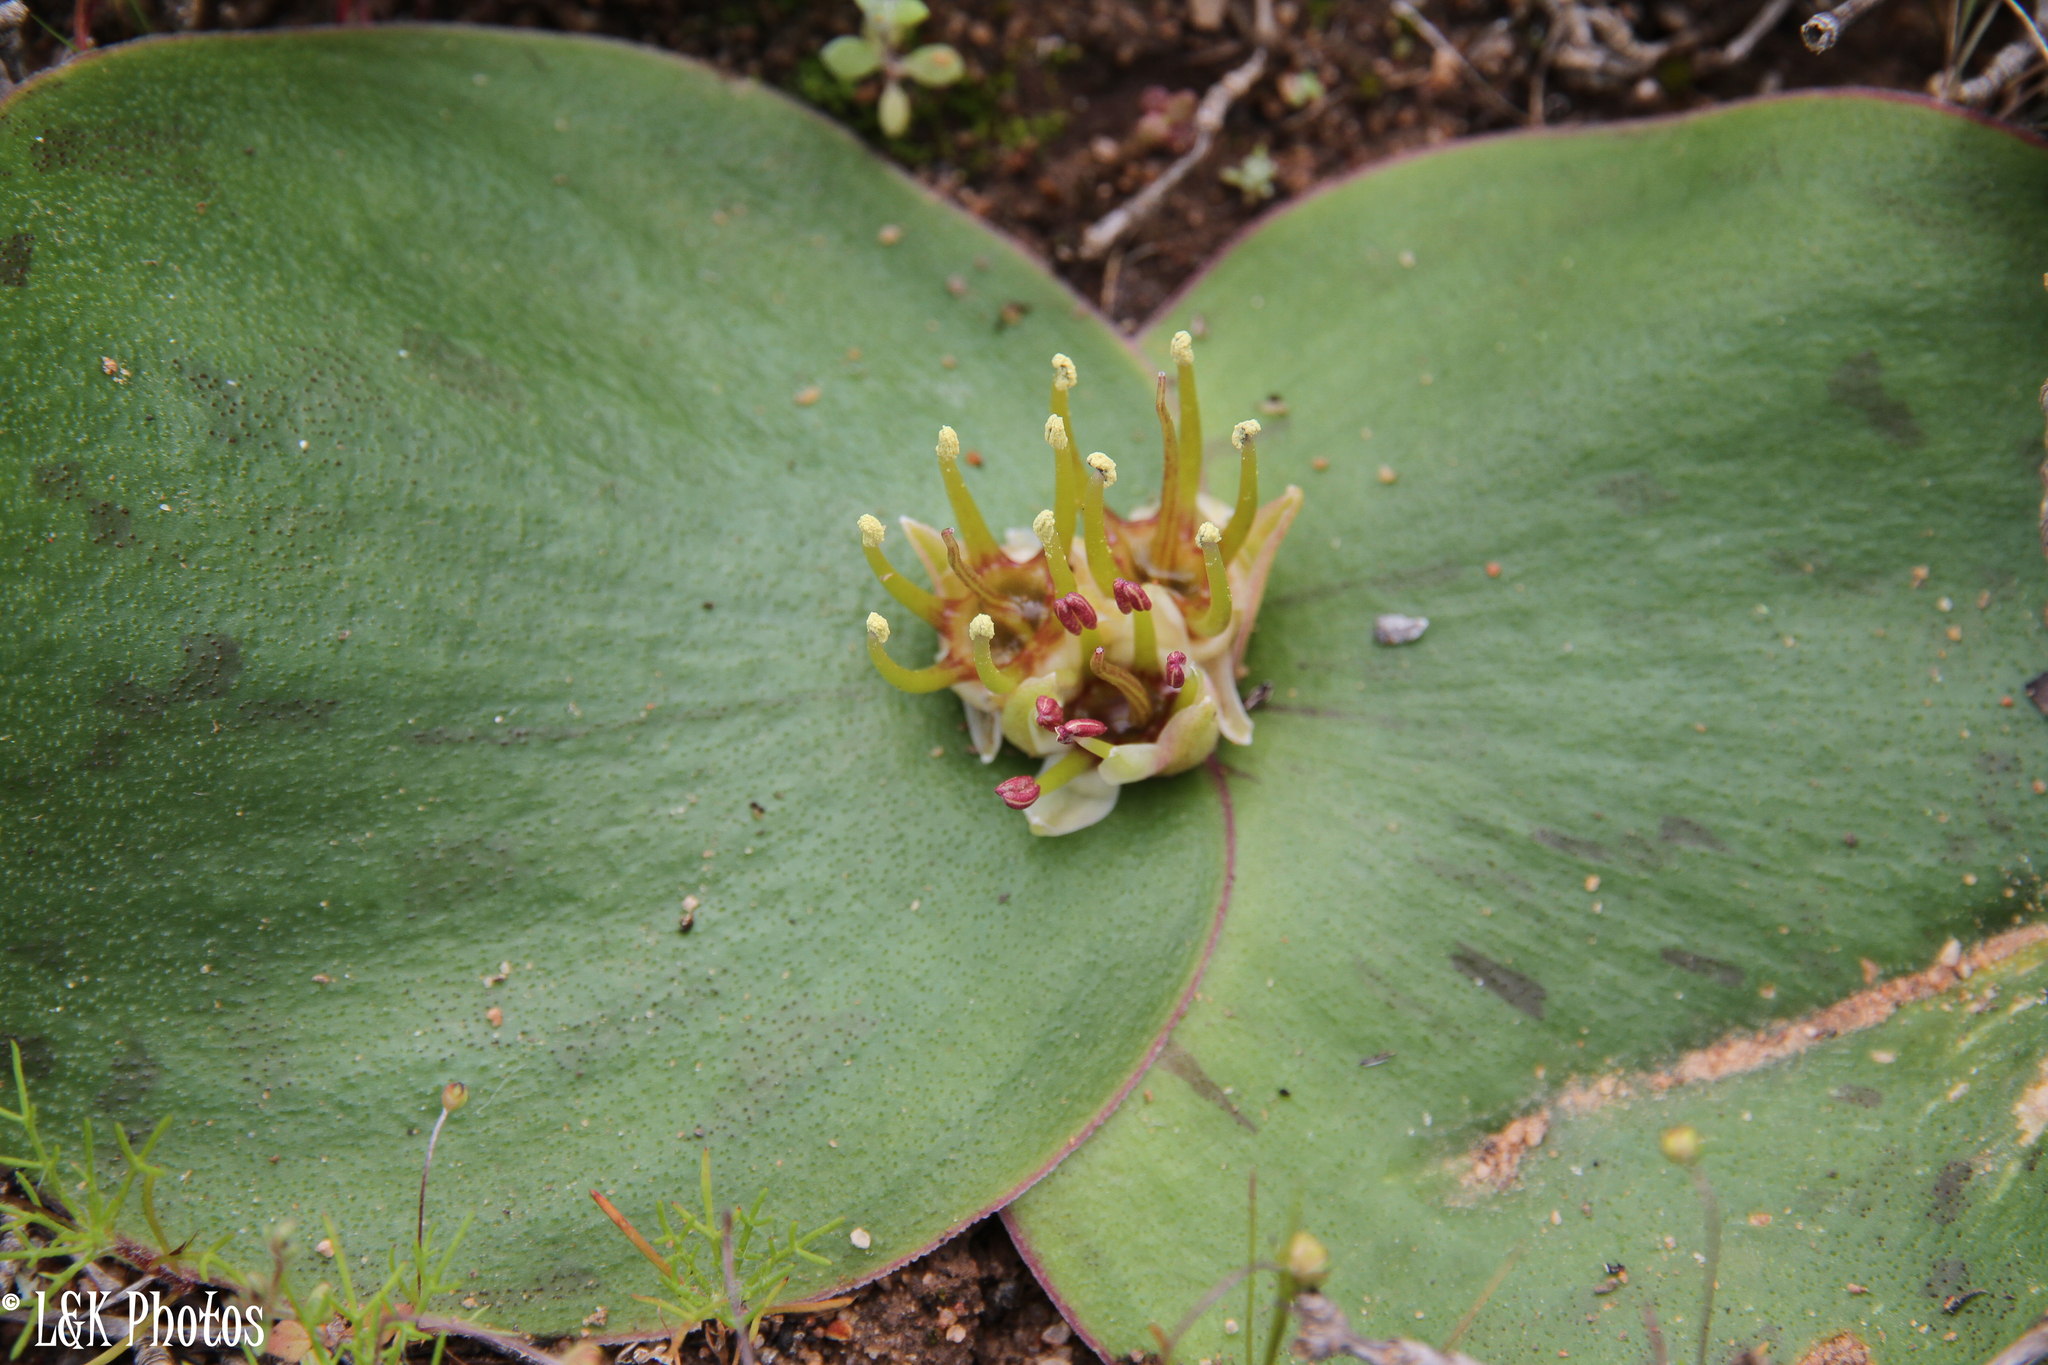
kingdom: Plantae
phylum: Tracheophyta
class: Liliopsida
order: Asparagales
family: Asparagaceae
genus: Massonia
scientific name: Massonia depressa
